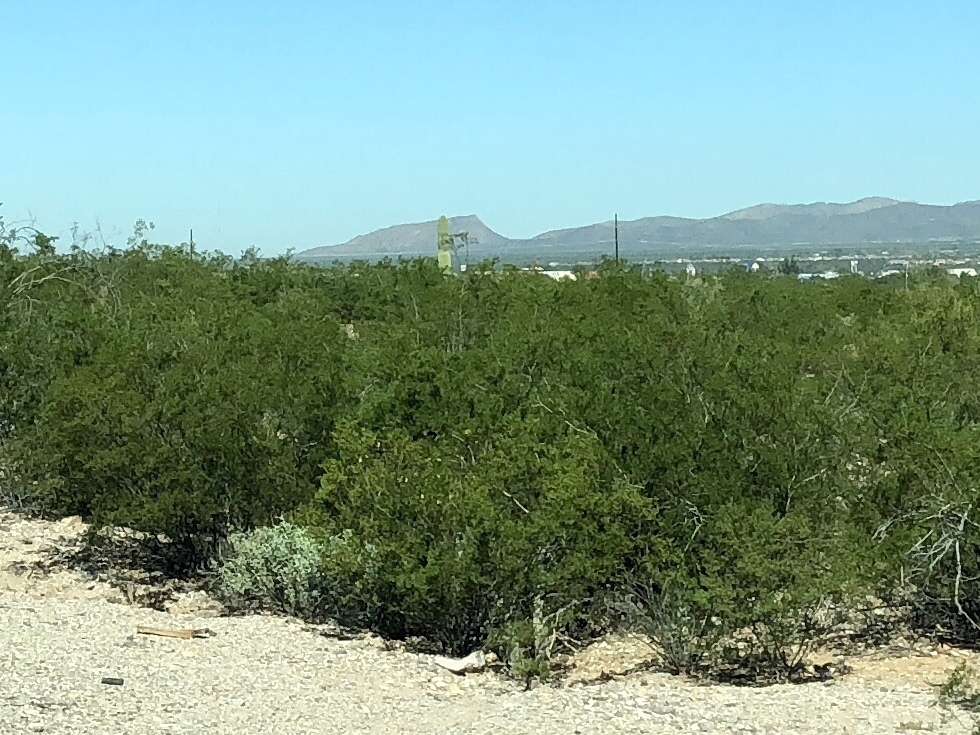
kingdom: Plantae
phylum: Tracheophyta
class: Magnoliopsida
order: Zygophyllales
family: Zygophyllaceae
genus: Larrea
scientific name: Larrea tridentata
